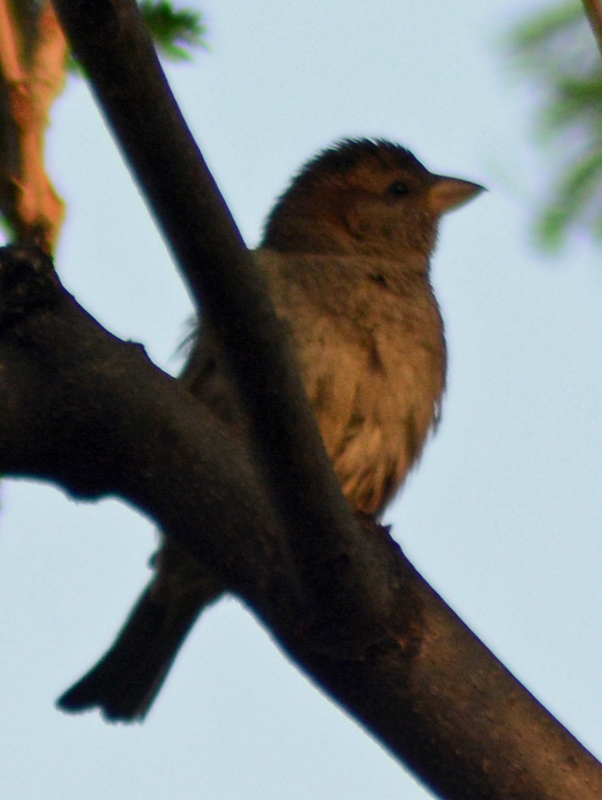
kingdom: Animalia
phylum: Chordata
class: Aves
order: Passeriformes
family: Passeridae
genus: Passer
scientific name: Passer domesticus
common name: House sparrow
